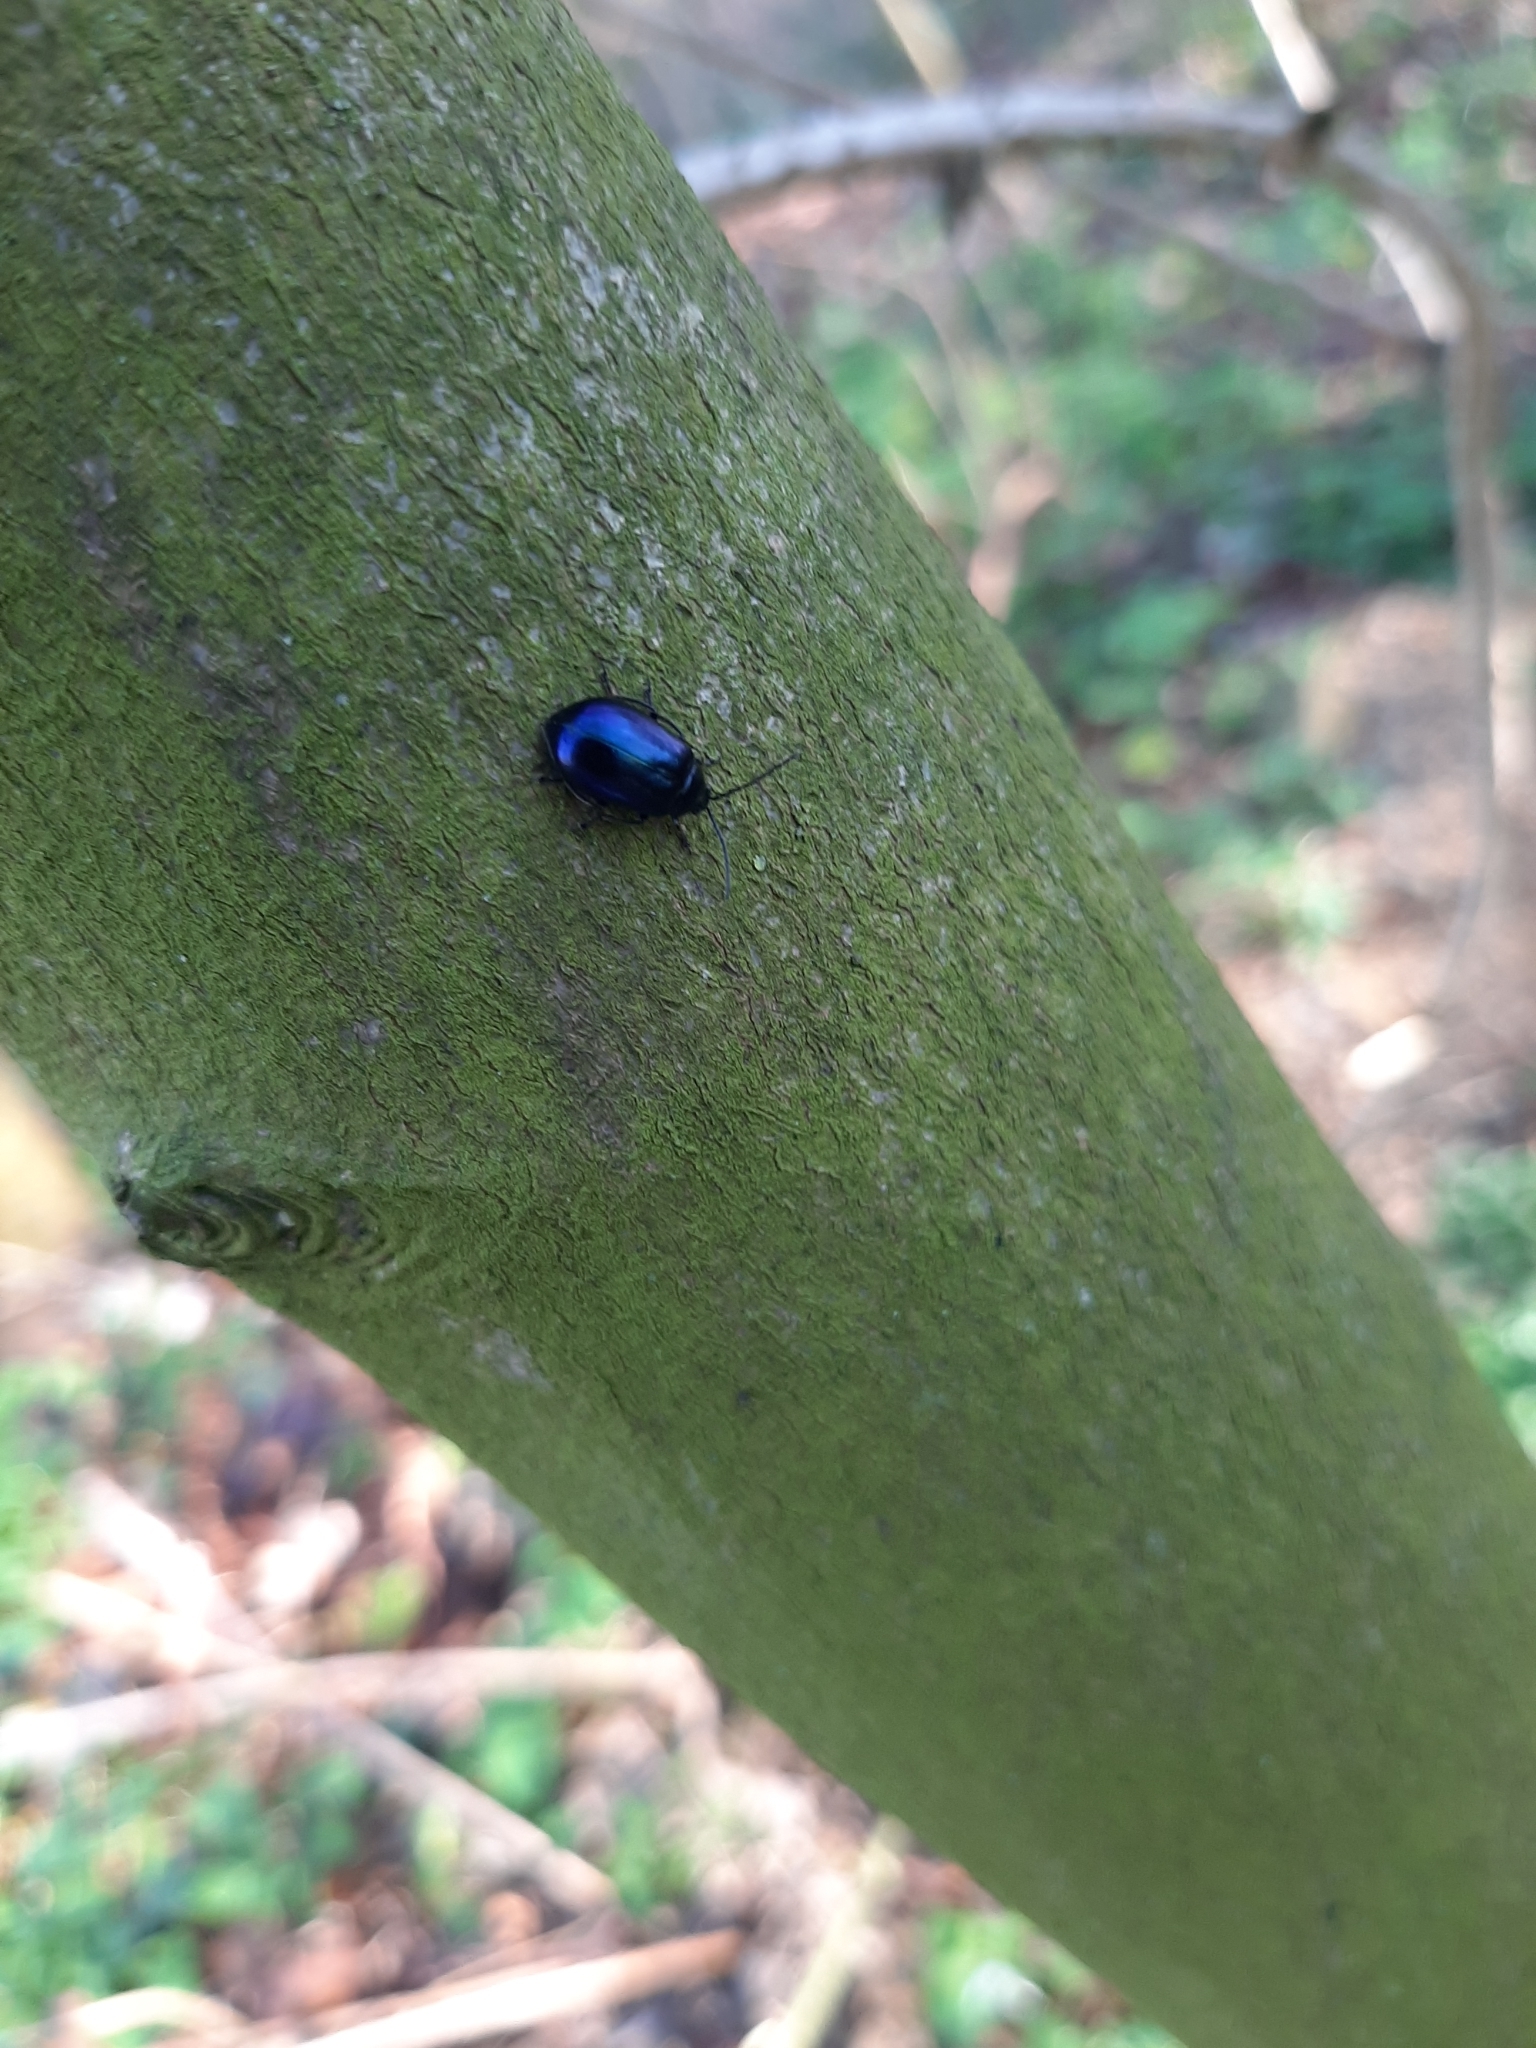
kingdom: Animalia
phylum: Arthropoda
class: Insecta
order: Coleoptera
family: Chrysomelidae
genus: Agelastica
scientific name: Agelastica alni
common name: Alder leaf beetle
